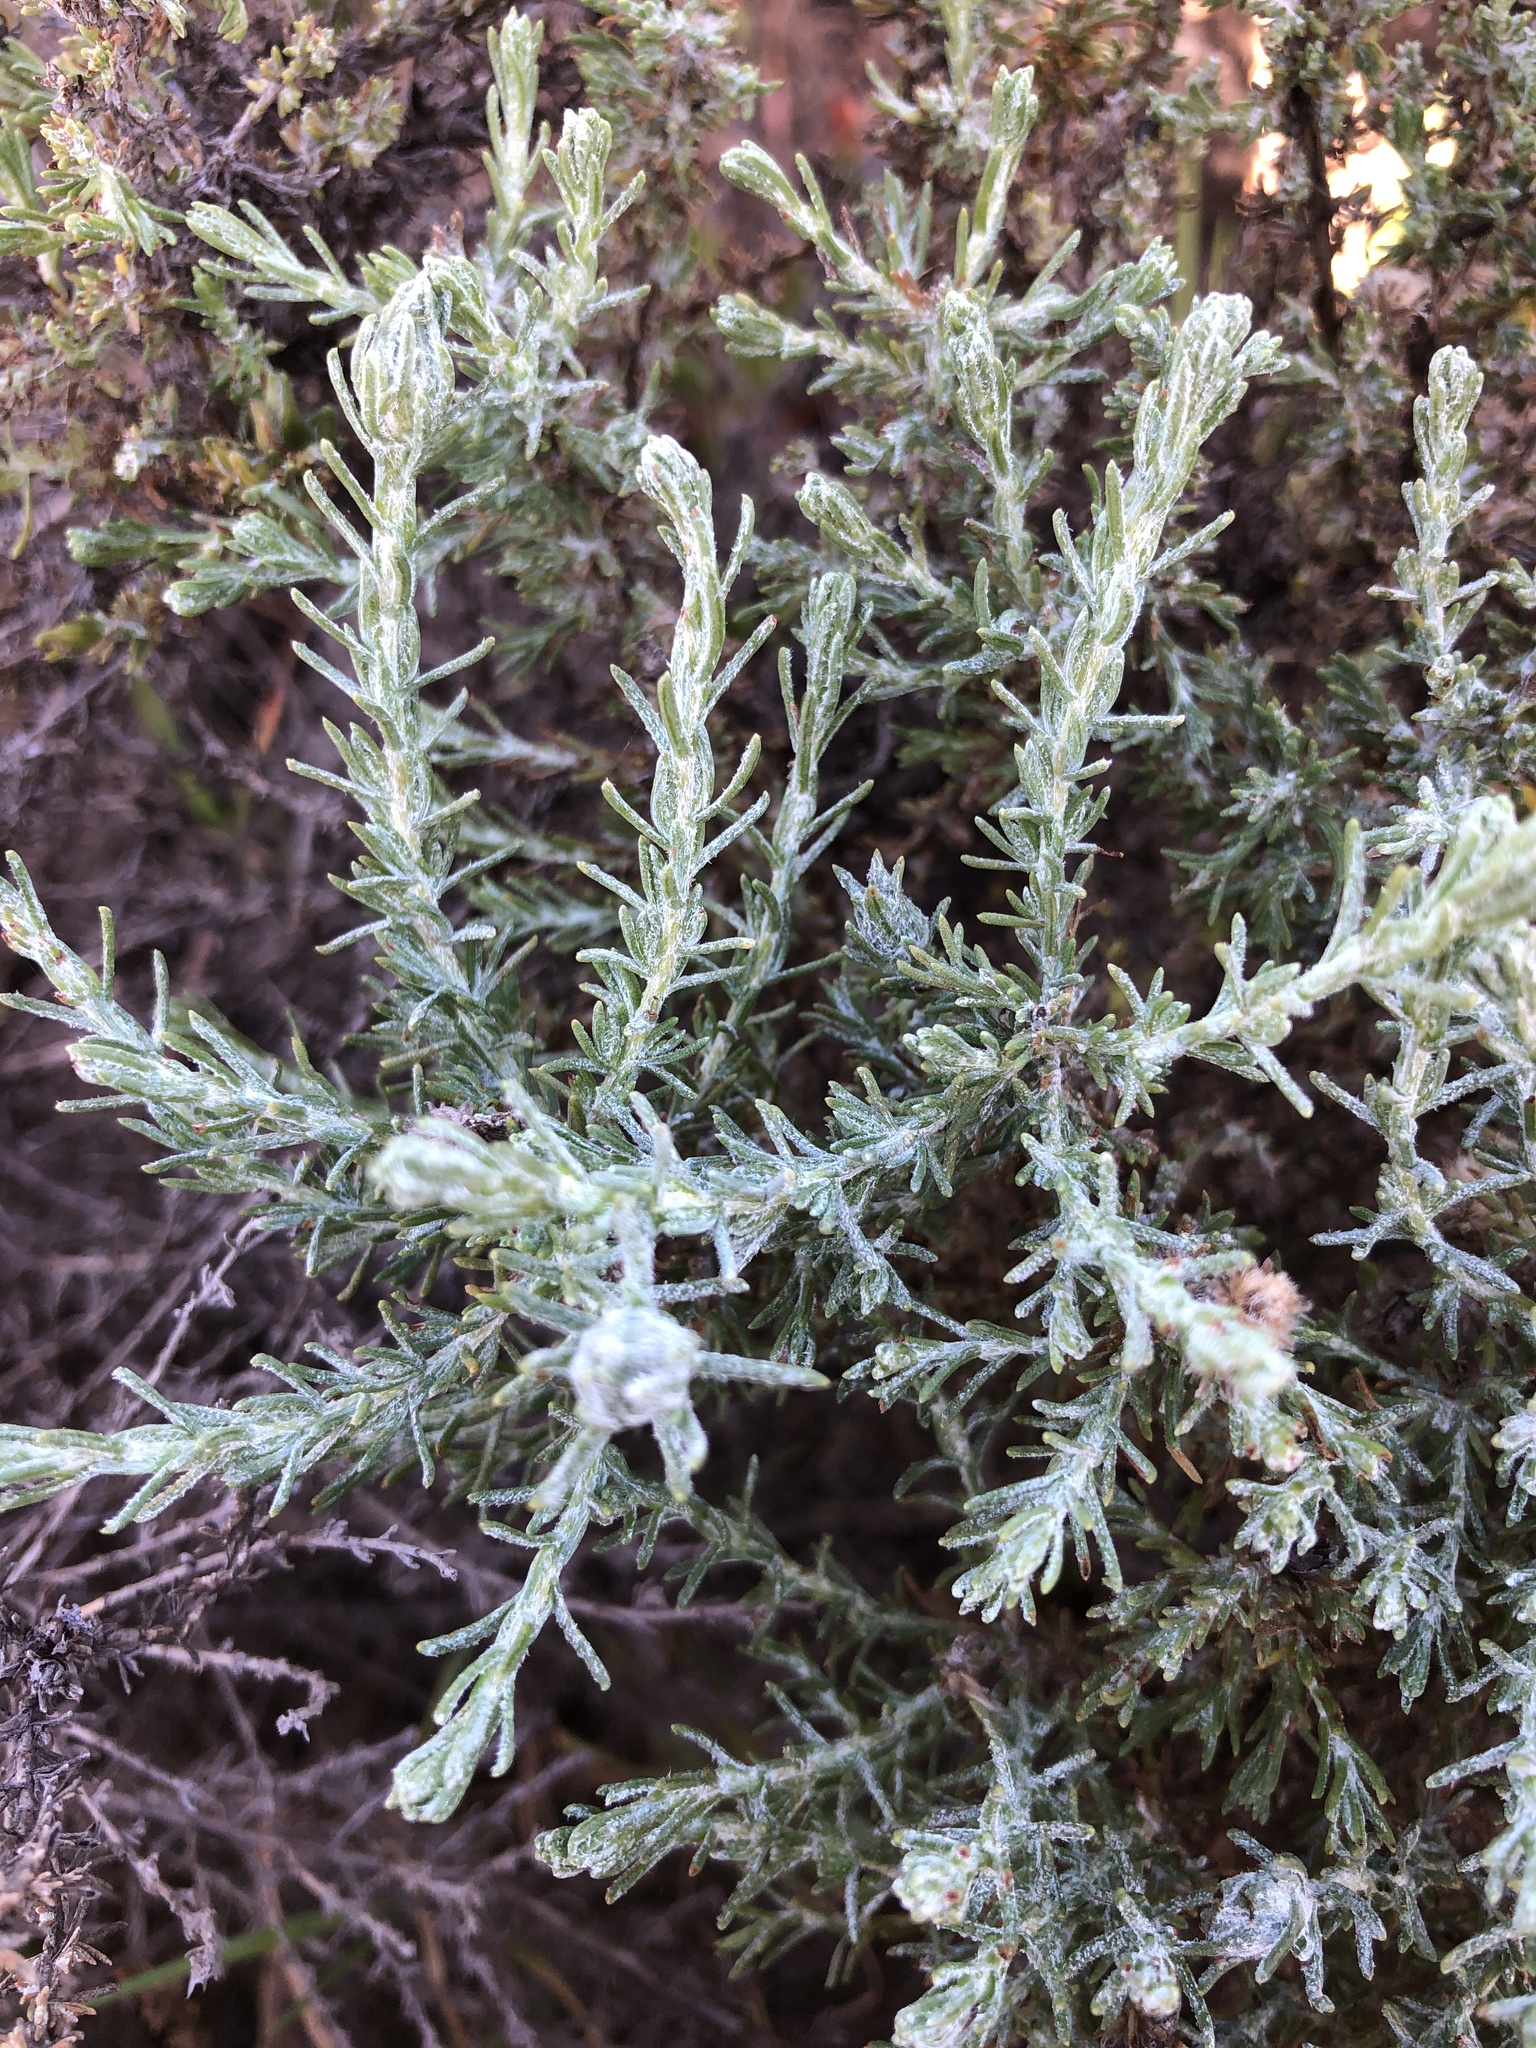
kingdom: Plantae
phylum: Tracheophyta
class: Magnoliopsida
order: Asterales
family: Asteraceae
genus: Ericameria
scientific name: Ericameria ericoides
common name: California goldenbush
